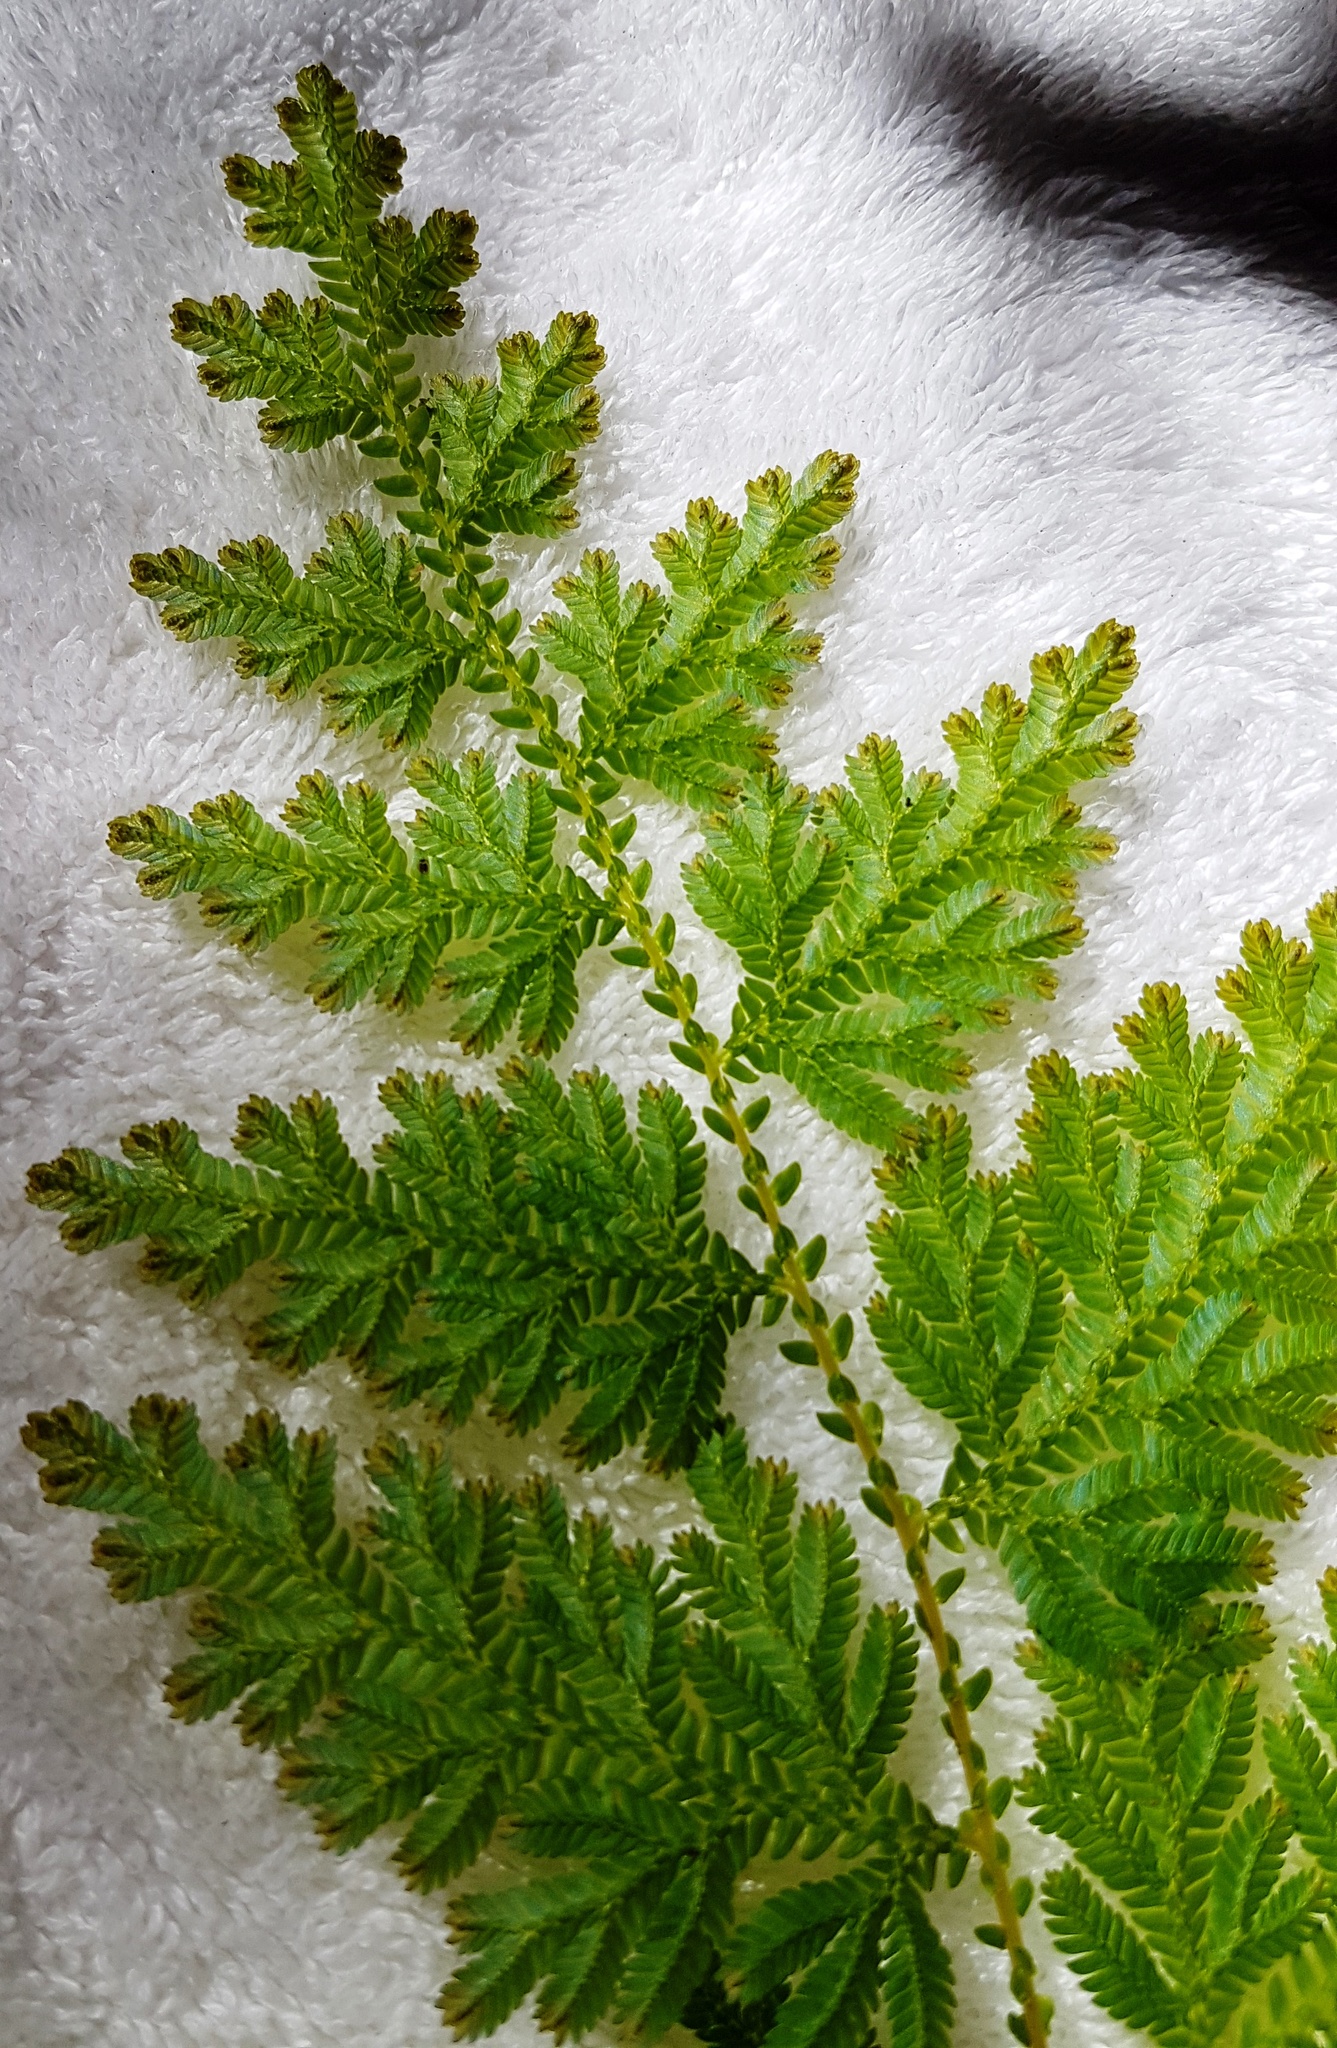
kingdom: Plantae
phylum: Tracheophyta
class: Lycopodiopsida
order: Selaginellales
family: Selaginellaceae
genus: Selaginella
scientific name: Selaginella willdenowii
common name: Willdenow's spikemoss
